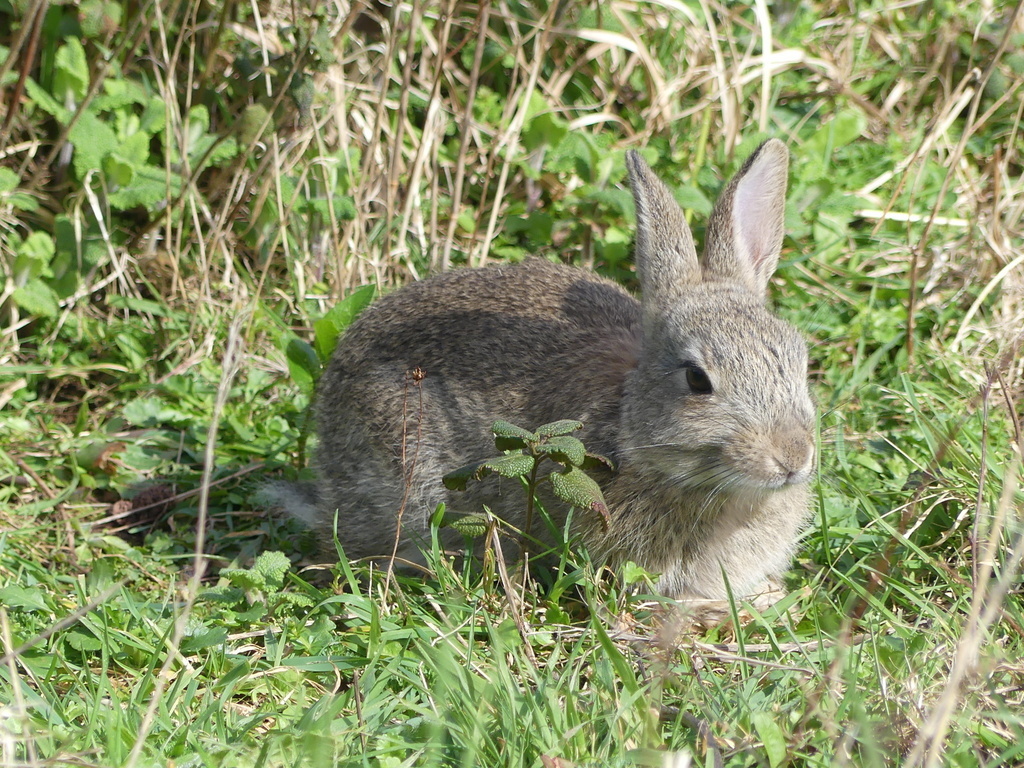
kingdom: Animalia
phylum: Chordata
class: Mammalia
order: Lagomorpha
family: Leporidae
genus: Oryctolagus
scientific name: Oryctolagus cuniculus
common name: European rabbit
